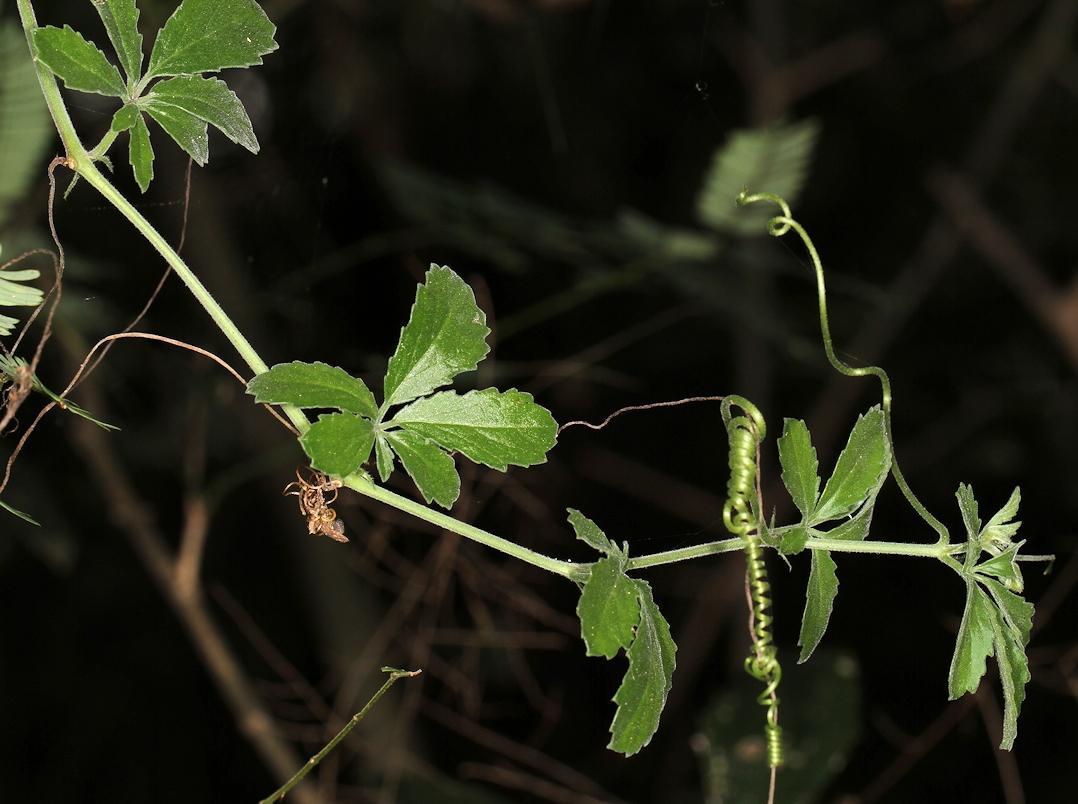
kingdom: Plantae
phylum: Tracheophyta
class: Magnoliopsida
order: Vitales
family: Vitaceae
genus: Cyphostemma
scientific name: Cyphostemma puberulum
